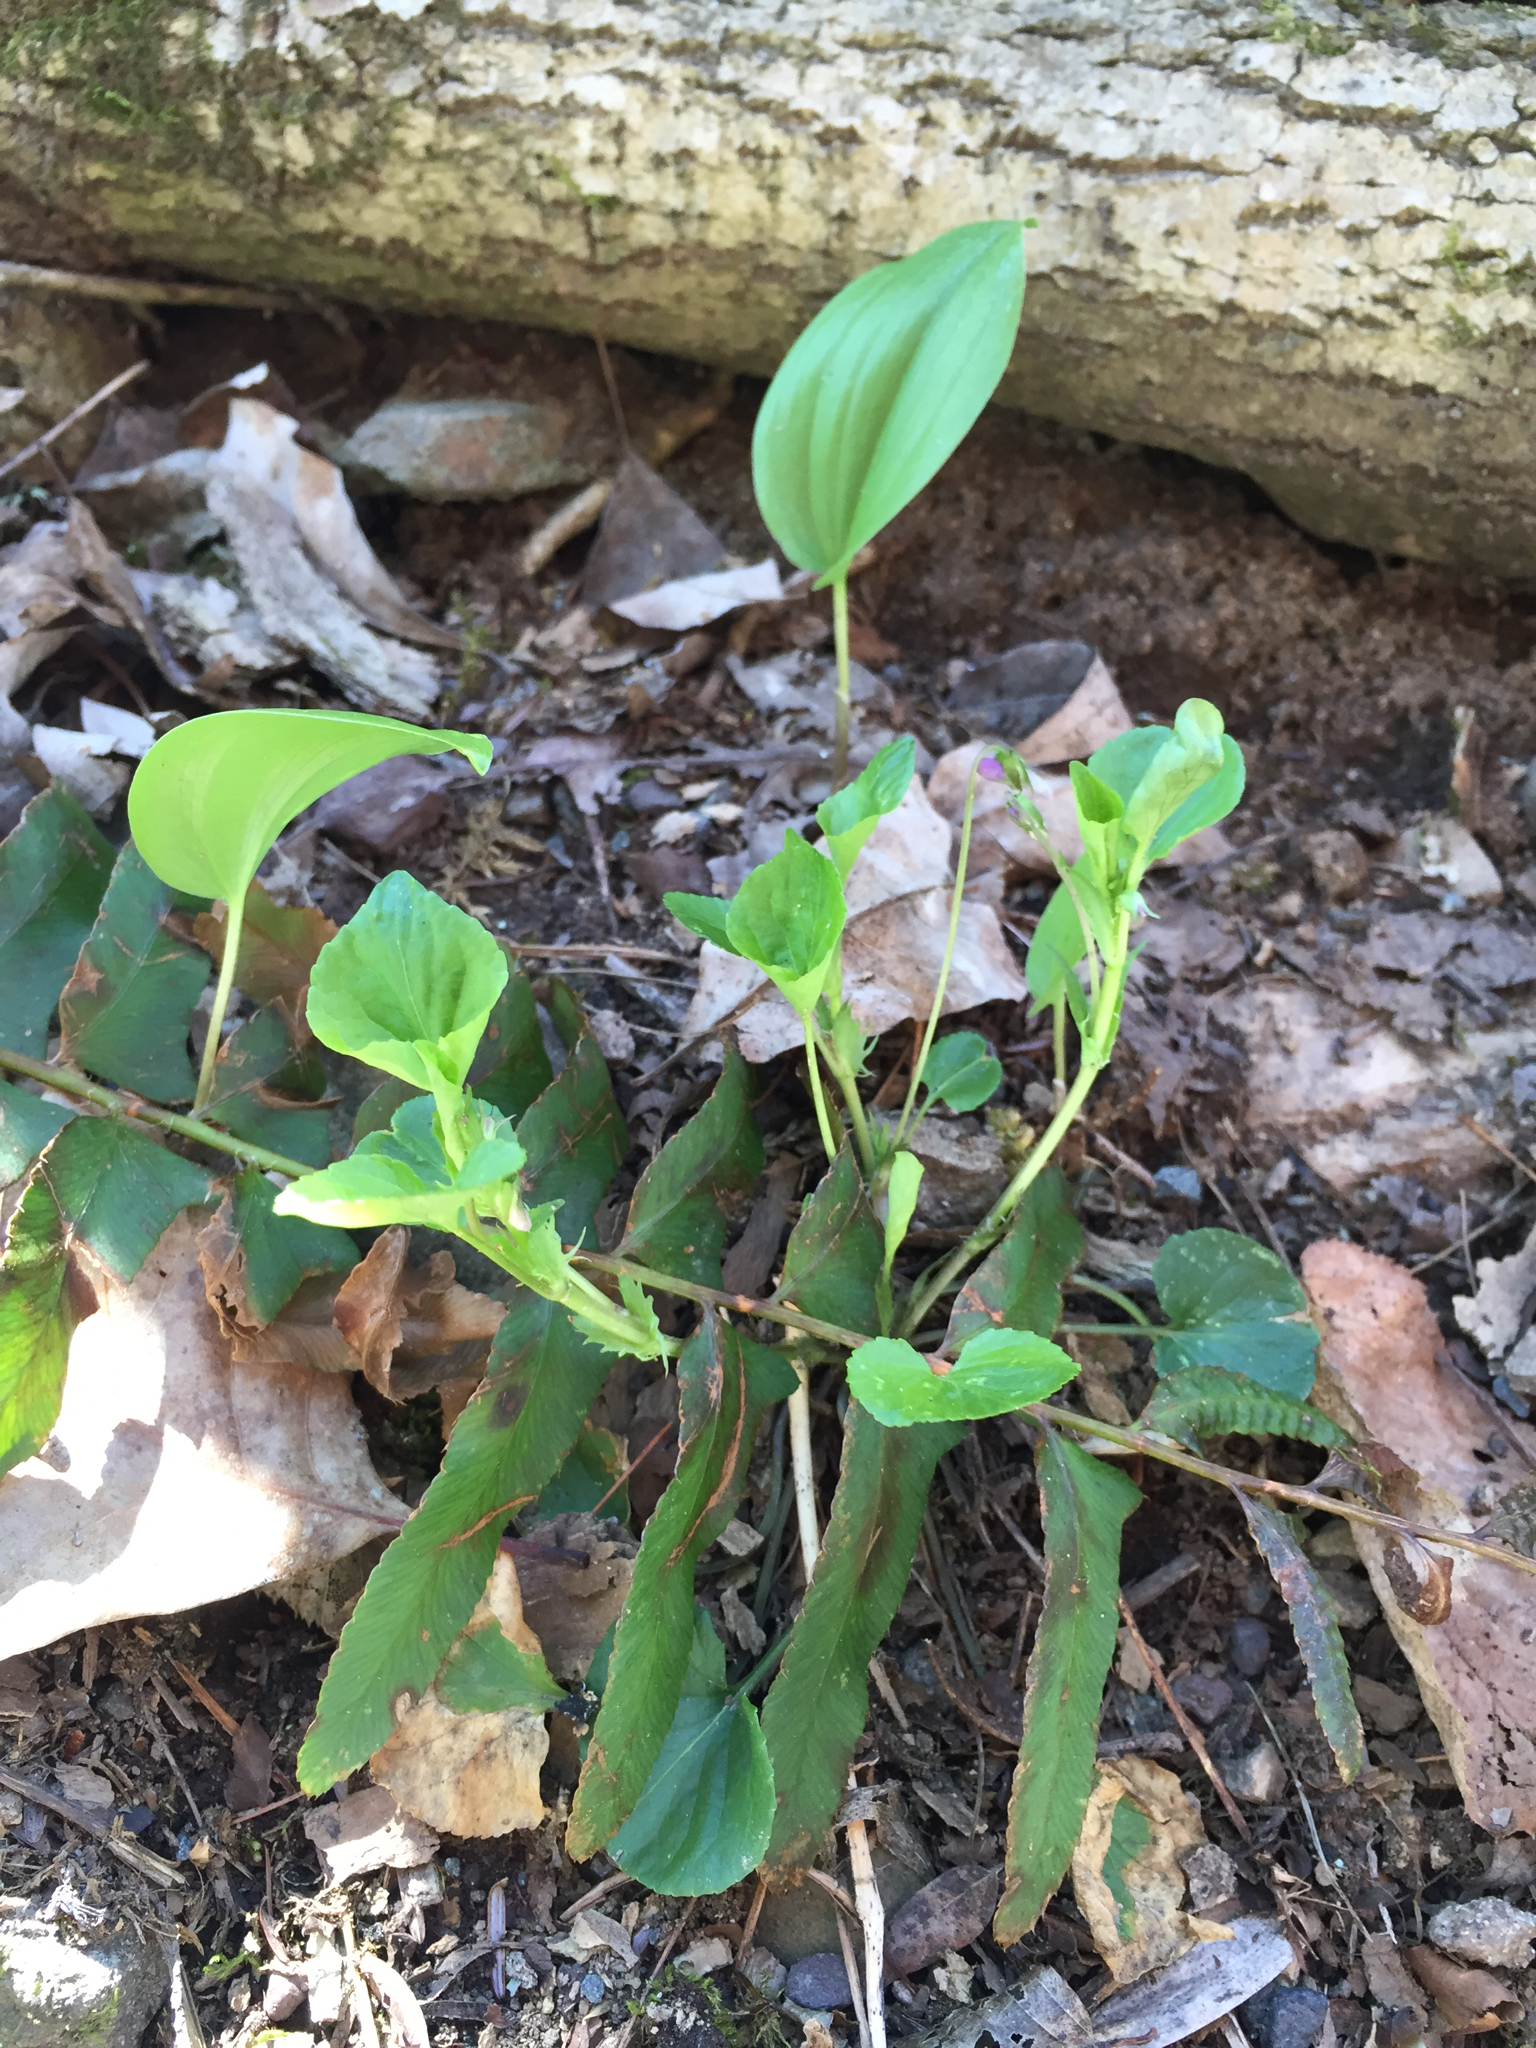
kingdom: Plantae
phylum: Tracheophyta
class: Magnoliopsida
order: Malpighiales
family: Violaceae
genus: Viola
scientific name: Viola striata
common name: Cream violet
